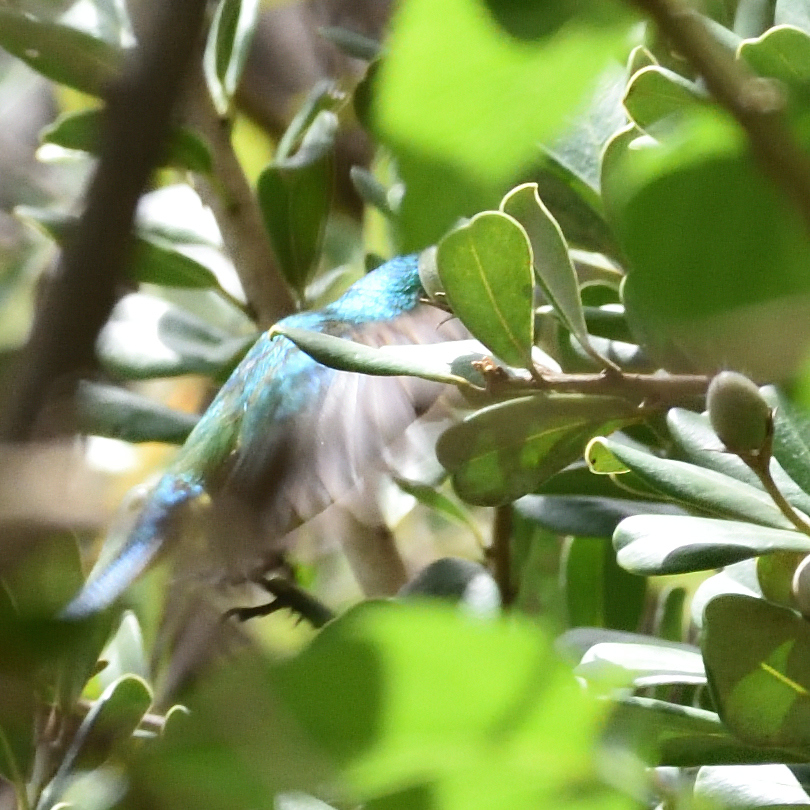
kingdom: Animalia
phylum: Chordata
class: Aves
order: Passeriformes
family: Nectariniidae
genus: Hedydipna
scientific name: Hedydipna collaris
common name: Collared sunbird
